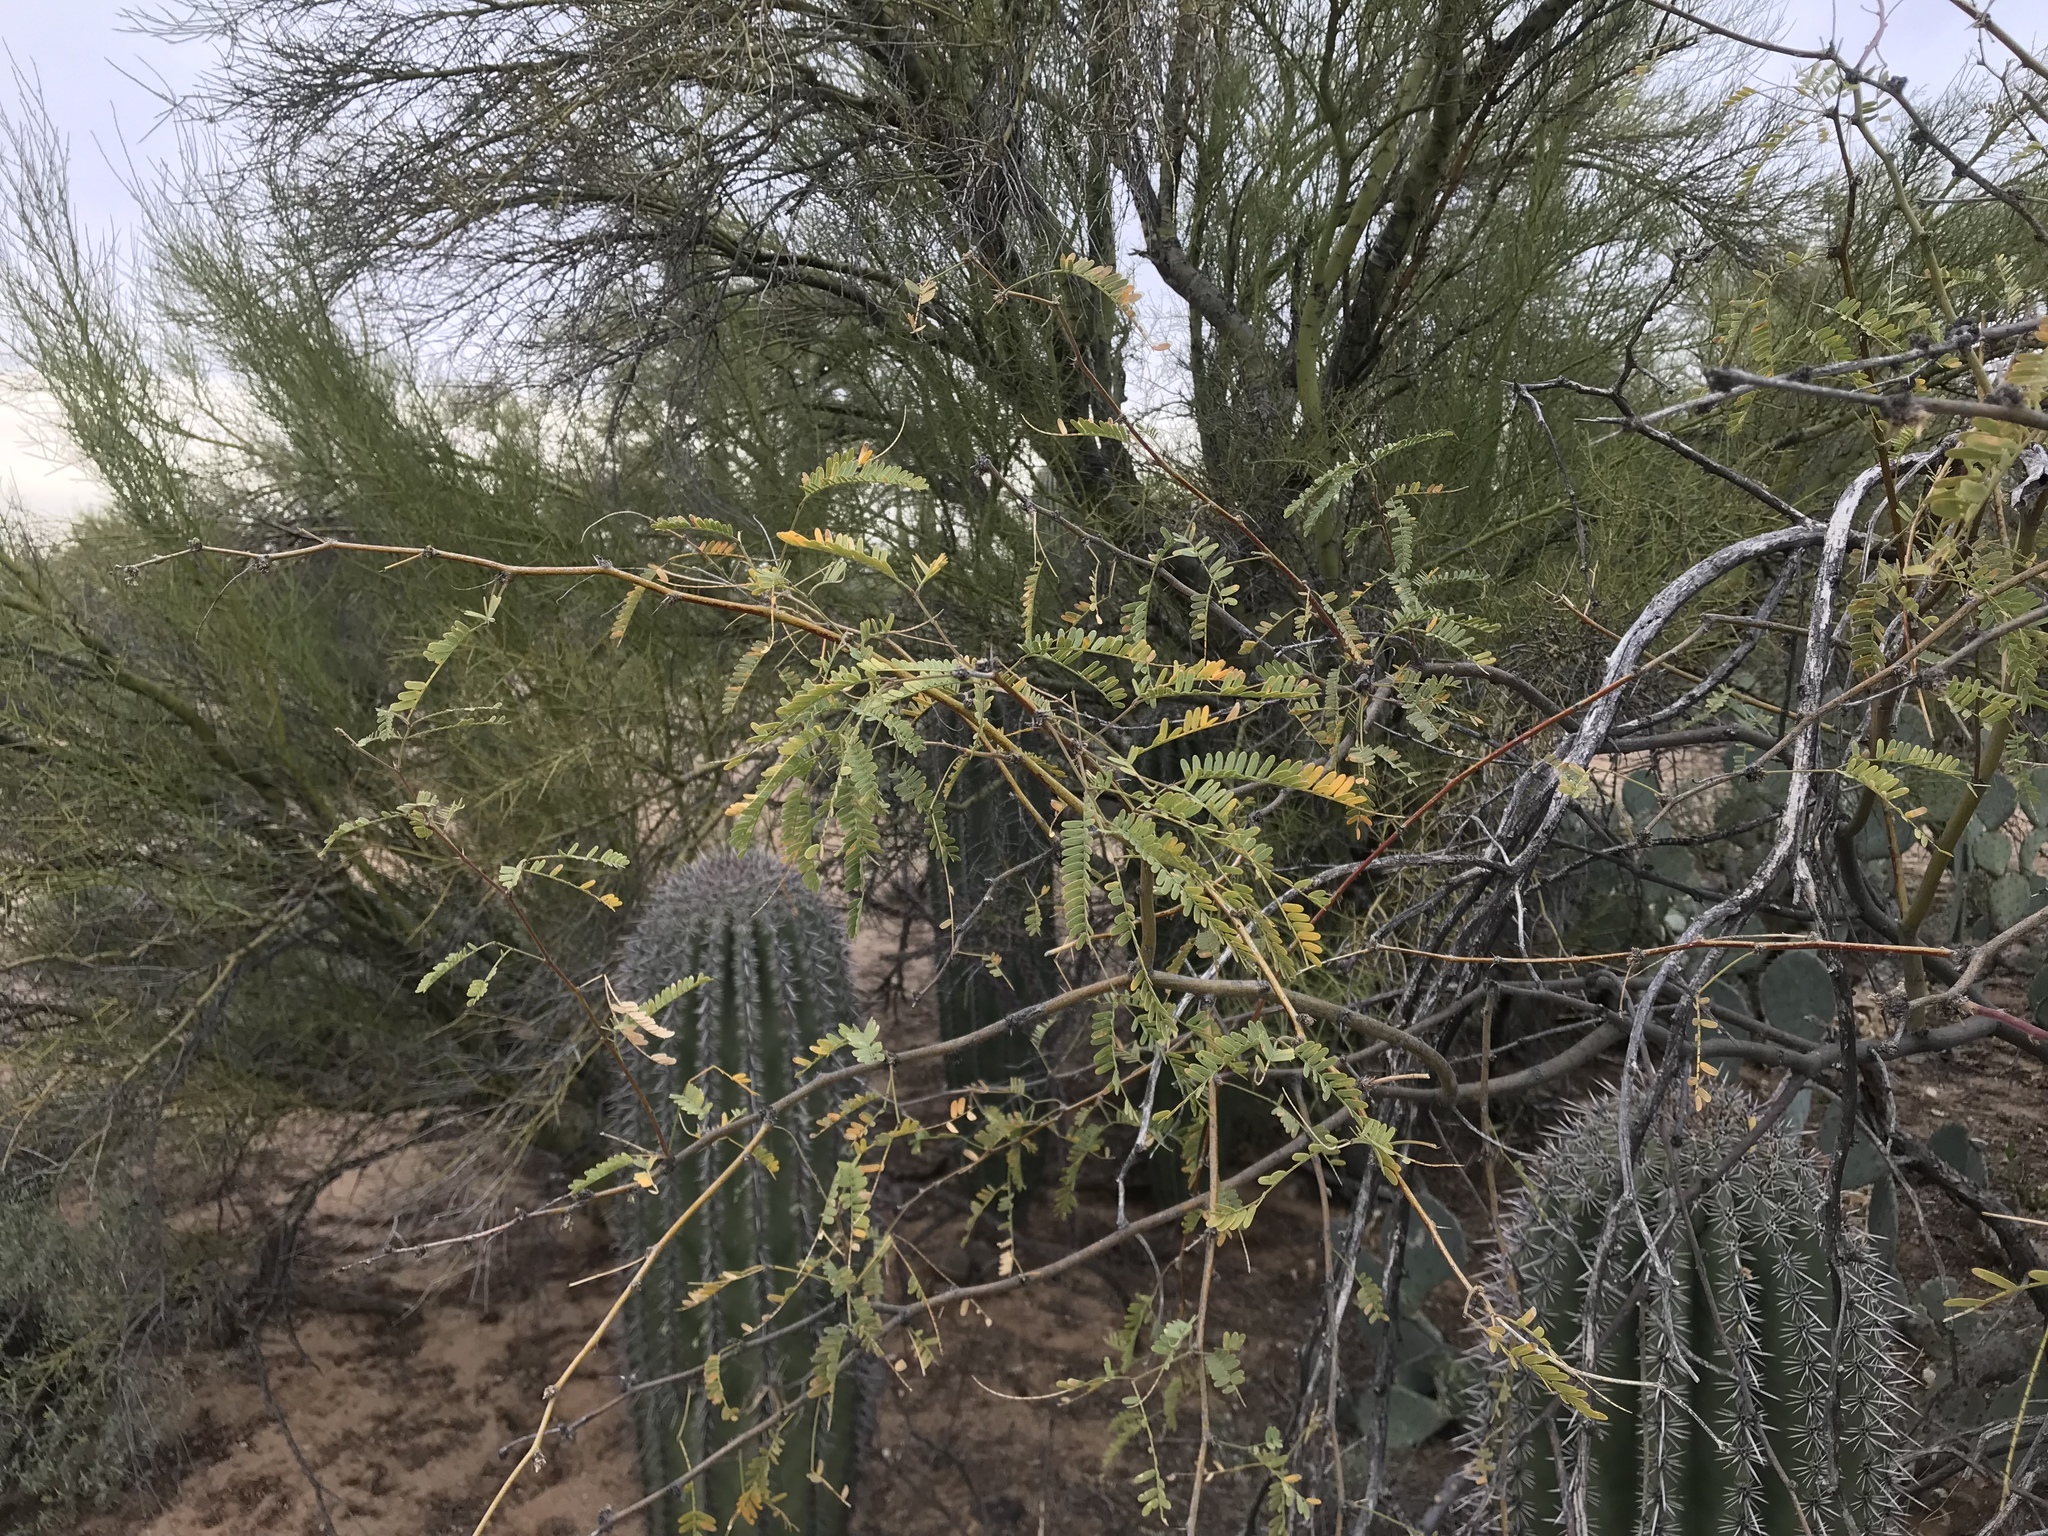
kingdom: Plantae
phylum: Tracheophyta
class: Magnoliopsida
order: Fabales
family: Fabaceae
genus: Prosopis
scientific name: Prosopis velutina
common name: Velvet mesquite
